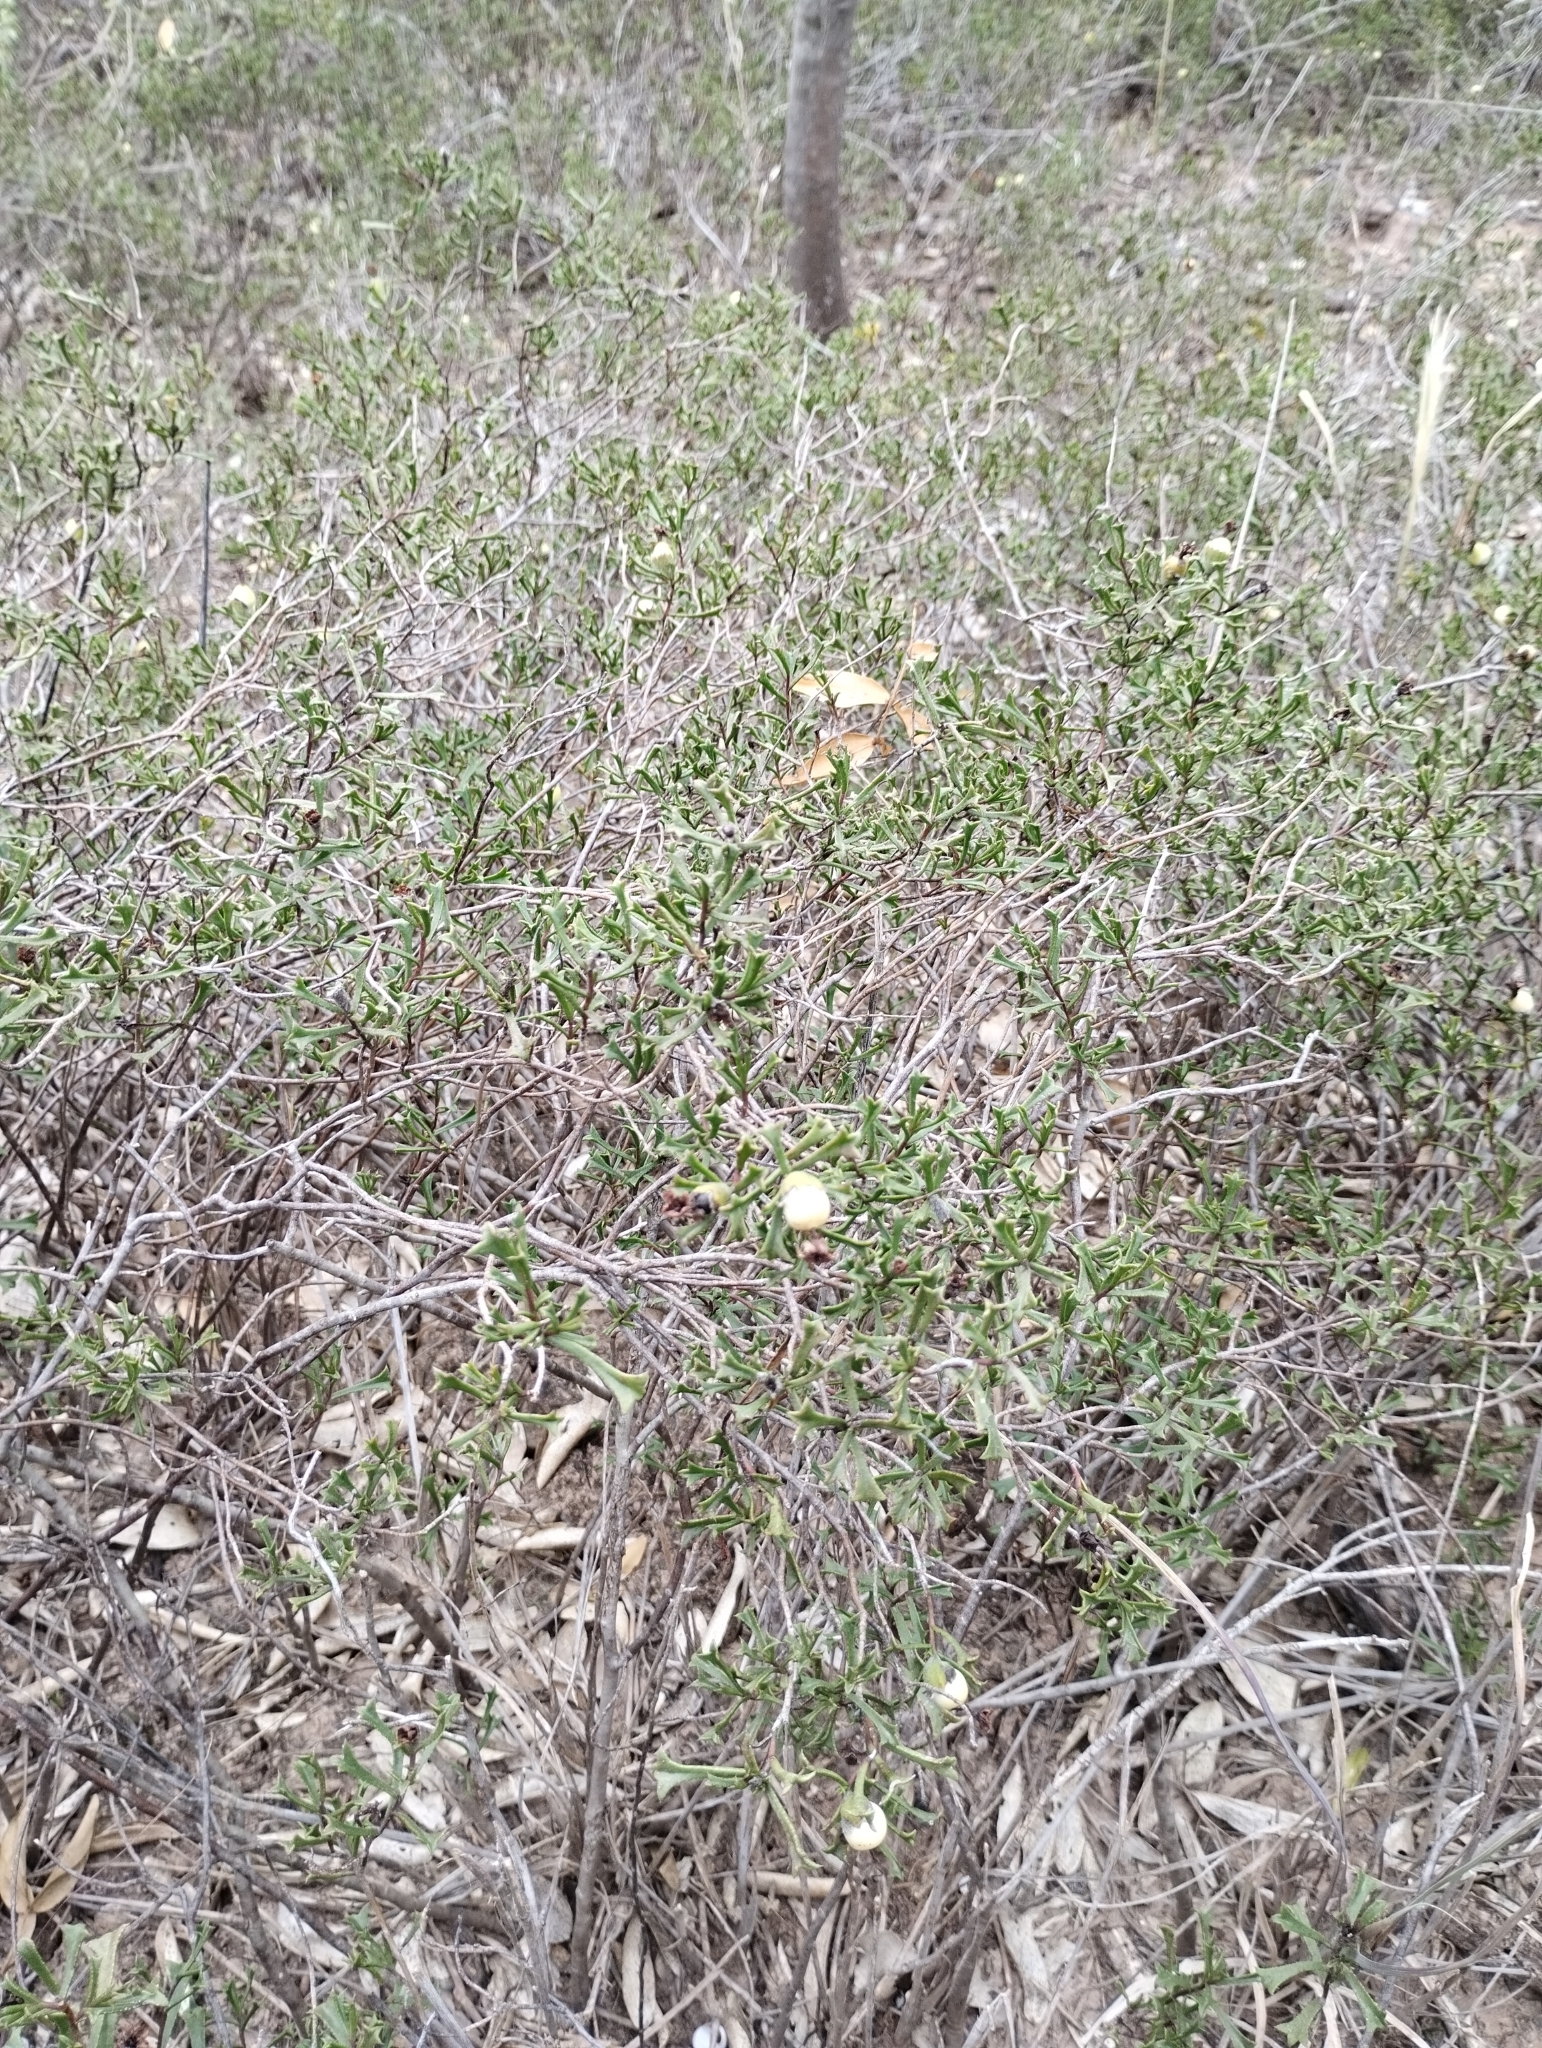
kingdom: Plantae
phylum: Tracheophyta
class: Magnoliopsida
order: Boraginales
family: Ehretiaceae
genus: Ehretia
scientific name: Ehretia cortesia
